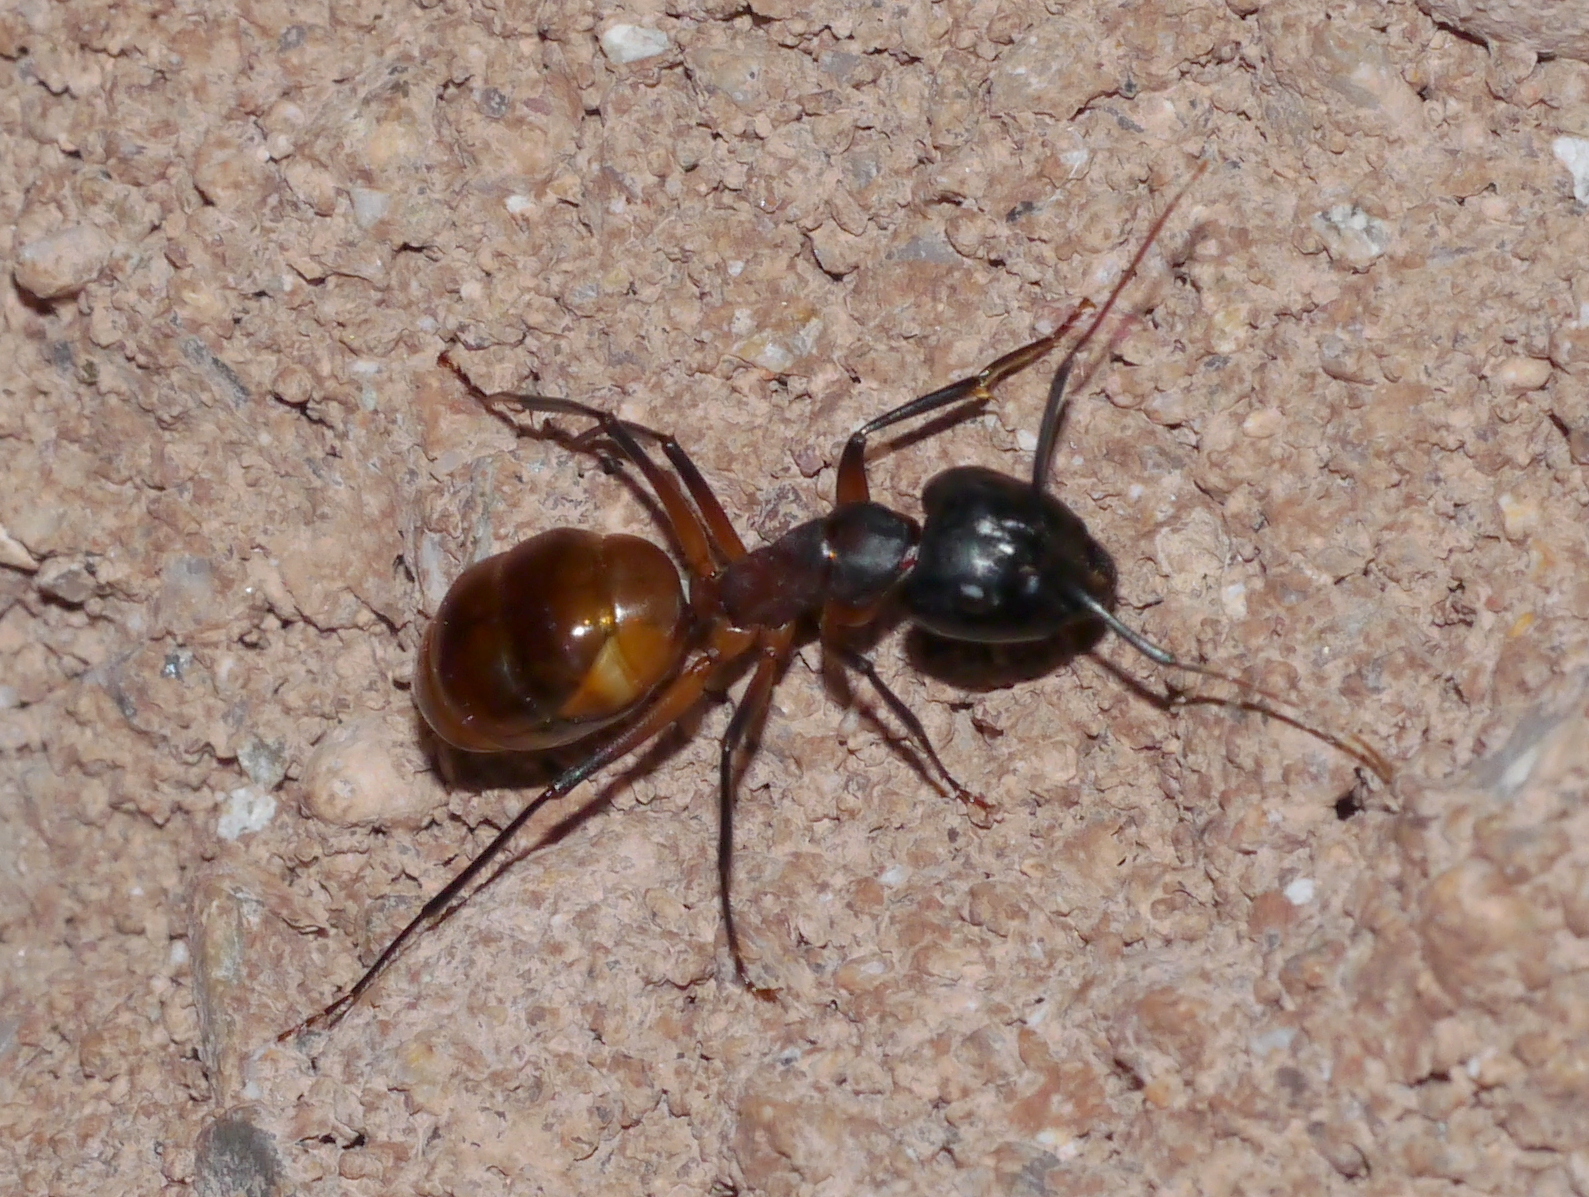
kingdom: Animalia
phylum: Arthropoda
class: Insecta
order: Hymenoptera
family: Formicidae
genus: Camponotus
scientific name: Camponotus ocreatus
